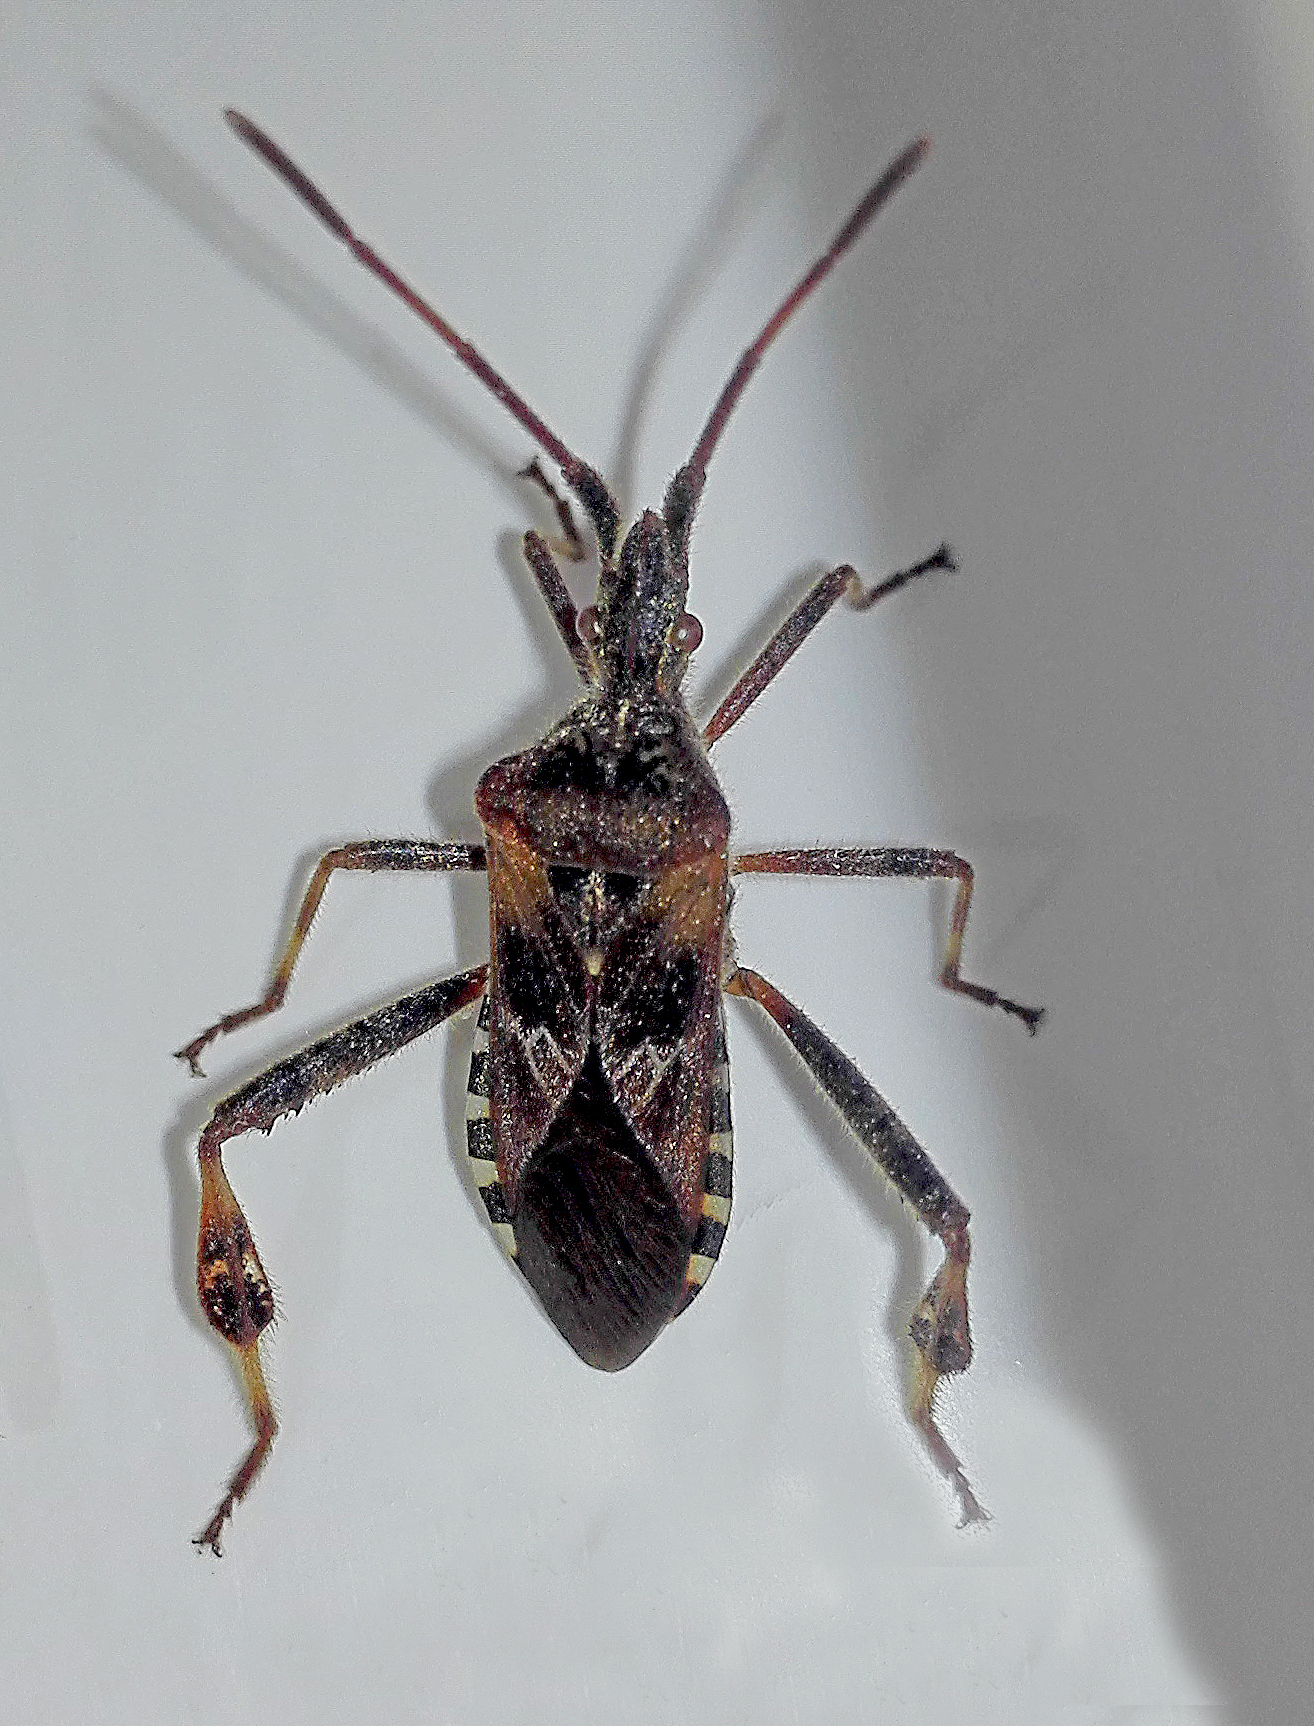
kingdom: Animalia
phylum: Arthropoda
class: Insecta
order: Hemiptera
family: Coreidae
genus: Leptoglossus
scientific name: Leptoglossus occidentalis
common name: Western conifer-seed bug
